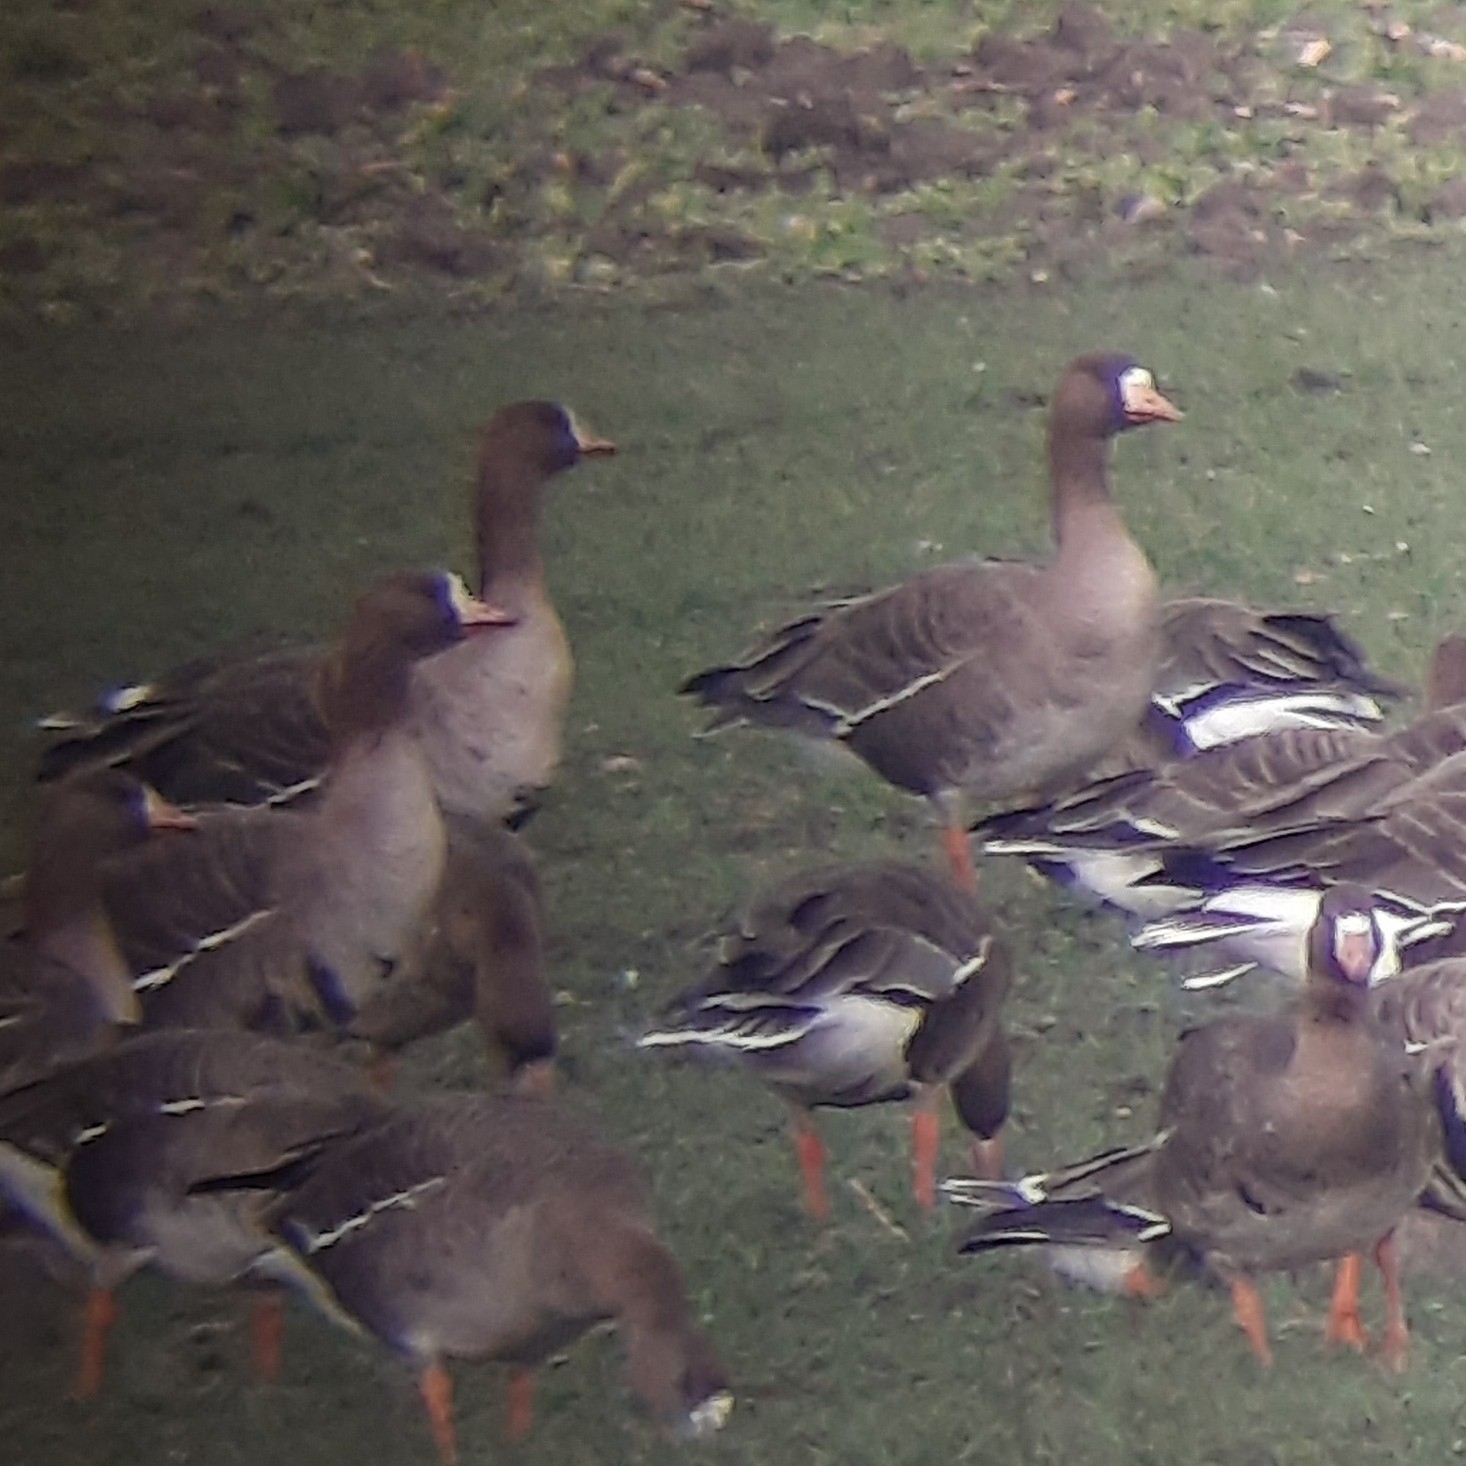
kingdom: Animalia
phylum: Chordata
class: Aves
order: Anseriformes
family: Anatidae
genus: Anser
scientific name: Anser albifrons
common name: Greater white-fronted goose
